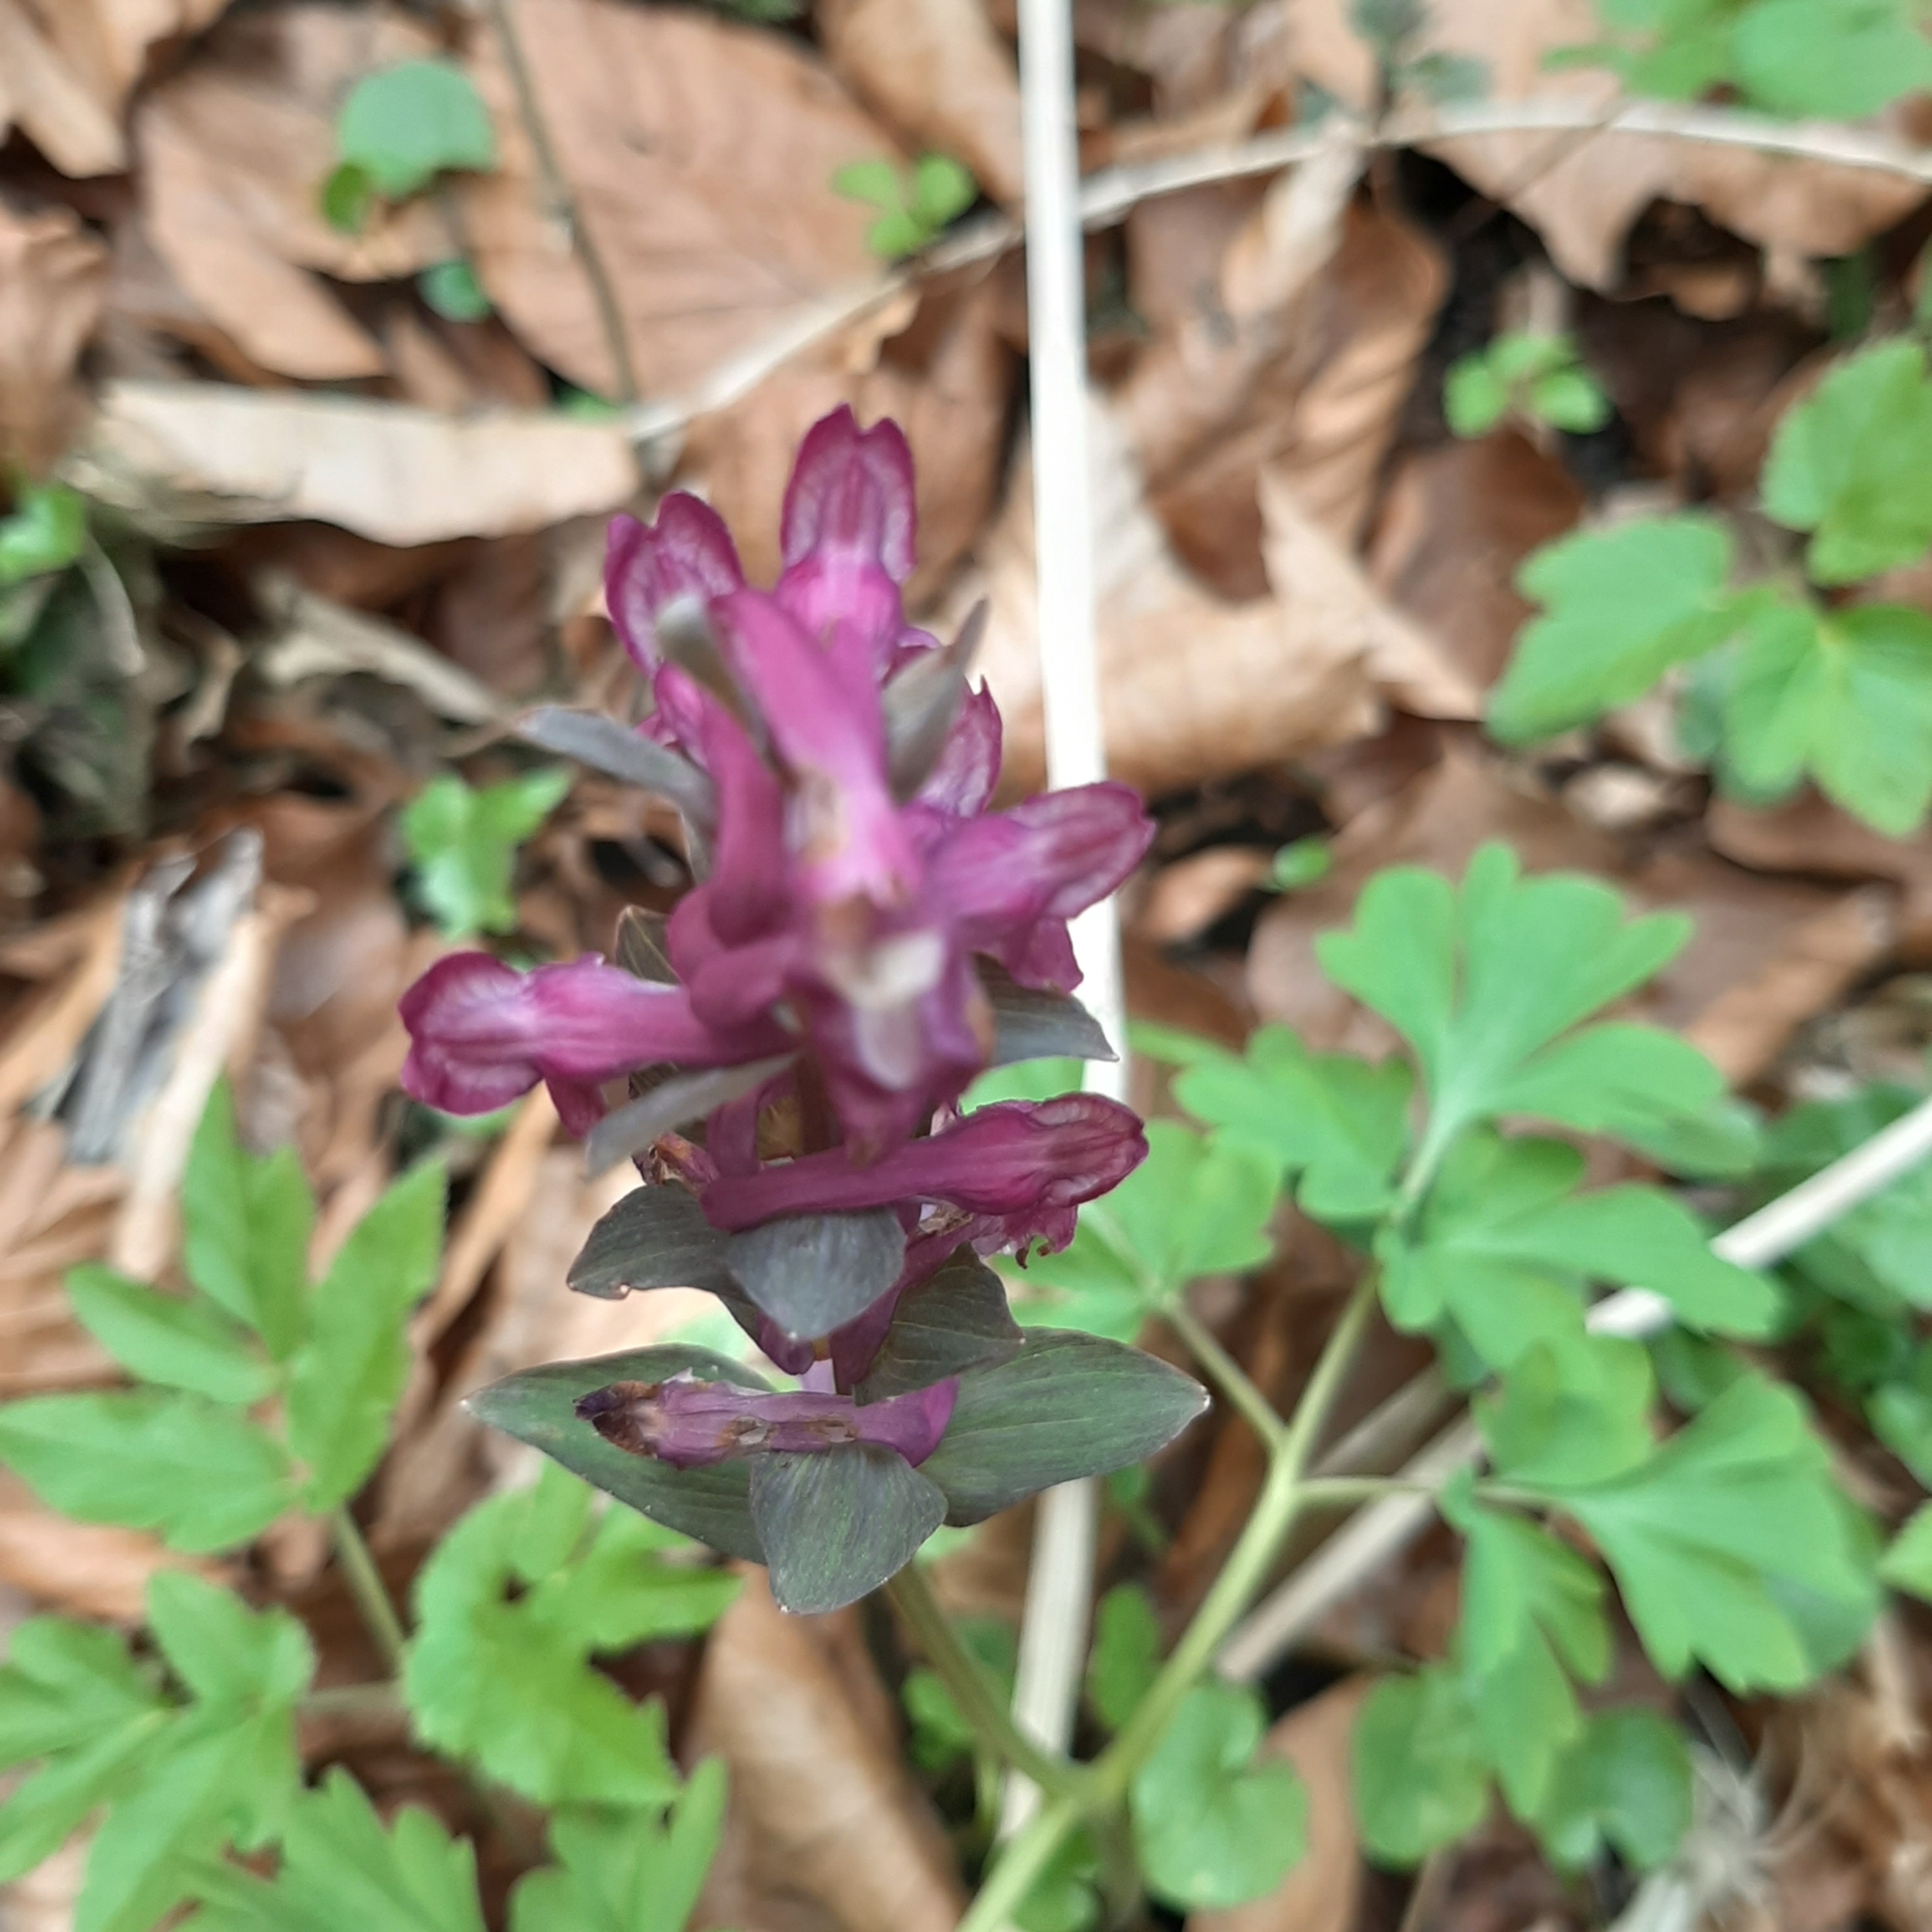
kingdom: Plantae
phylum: Tracheophyta
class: Magnoliopsida
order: Ranunculales
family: Papaveraceae
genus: Corydalis
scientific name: Corydalis cava
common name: Hollowroot
